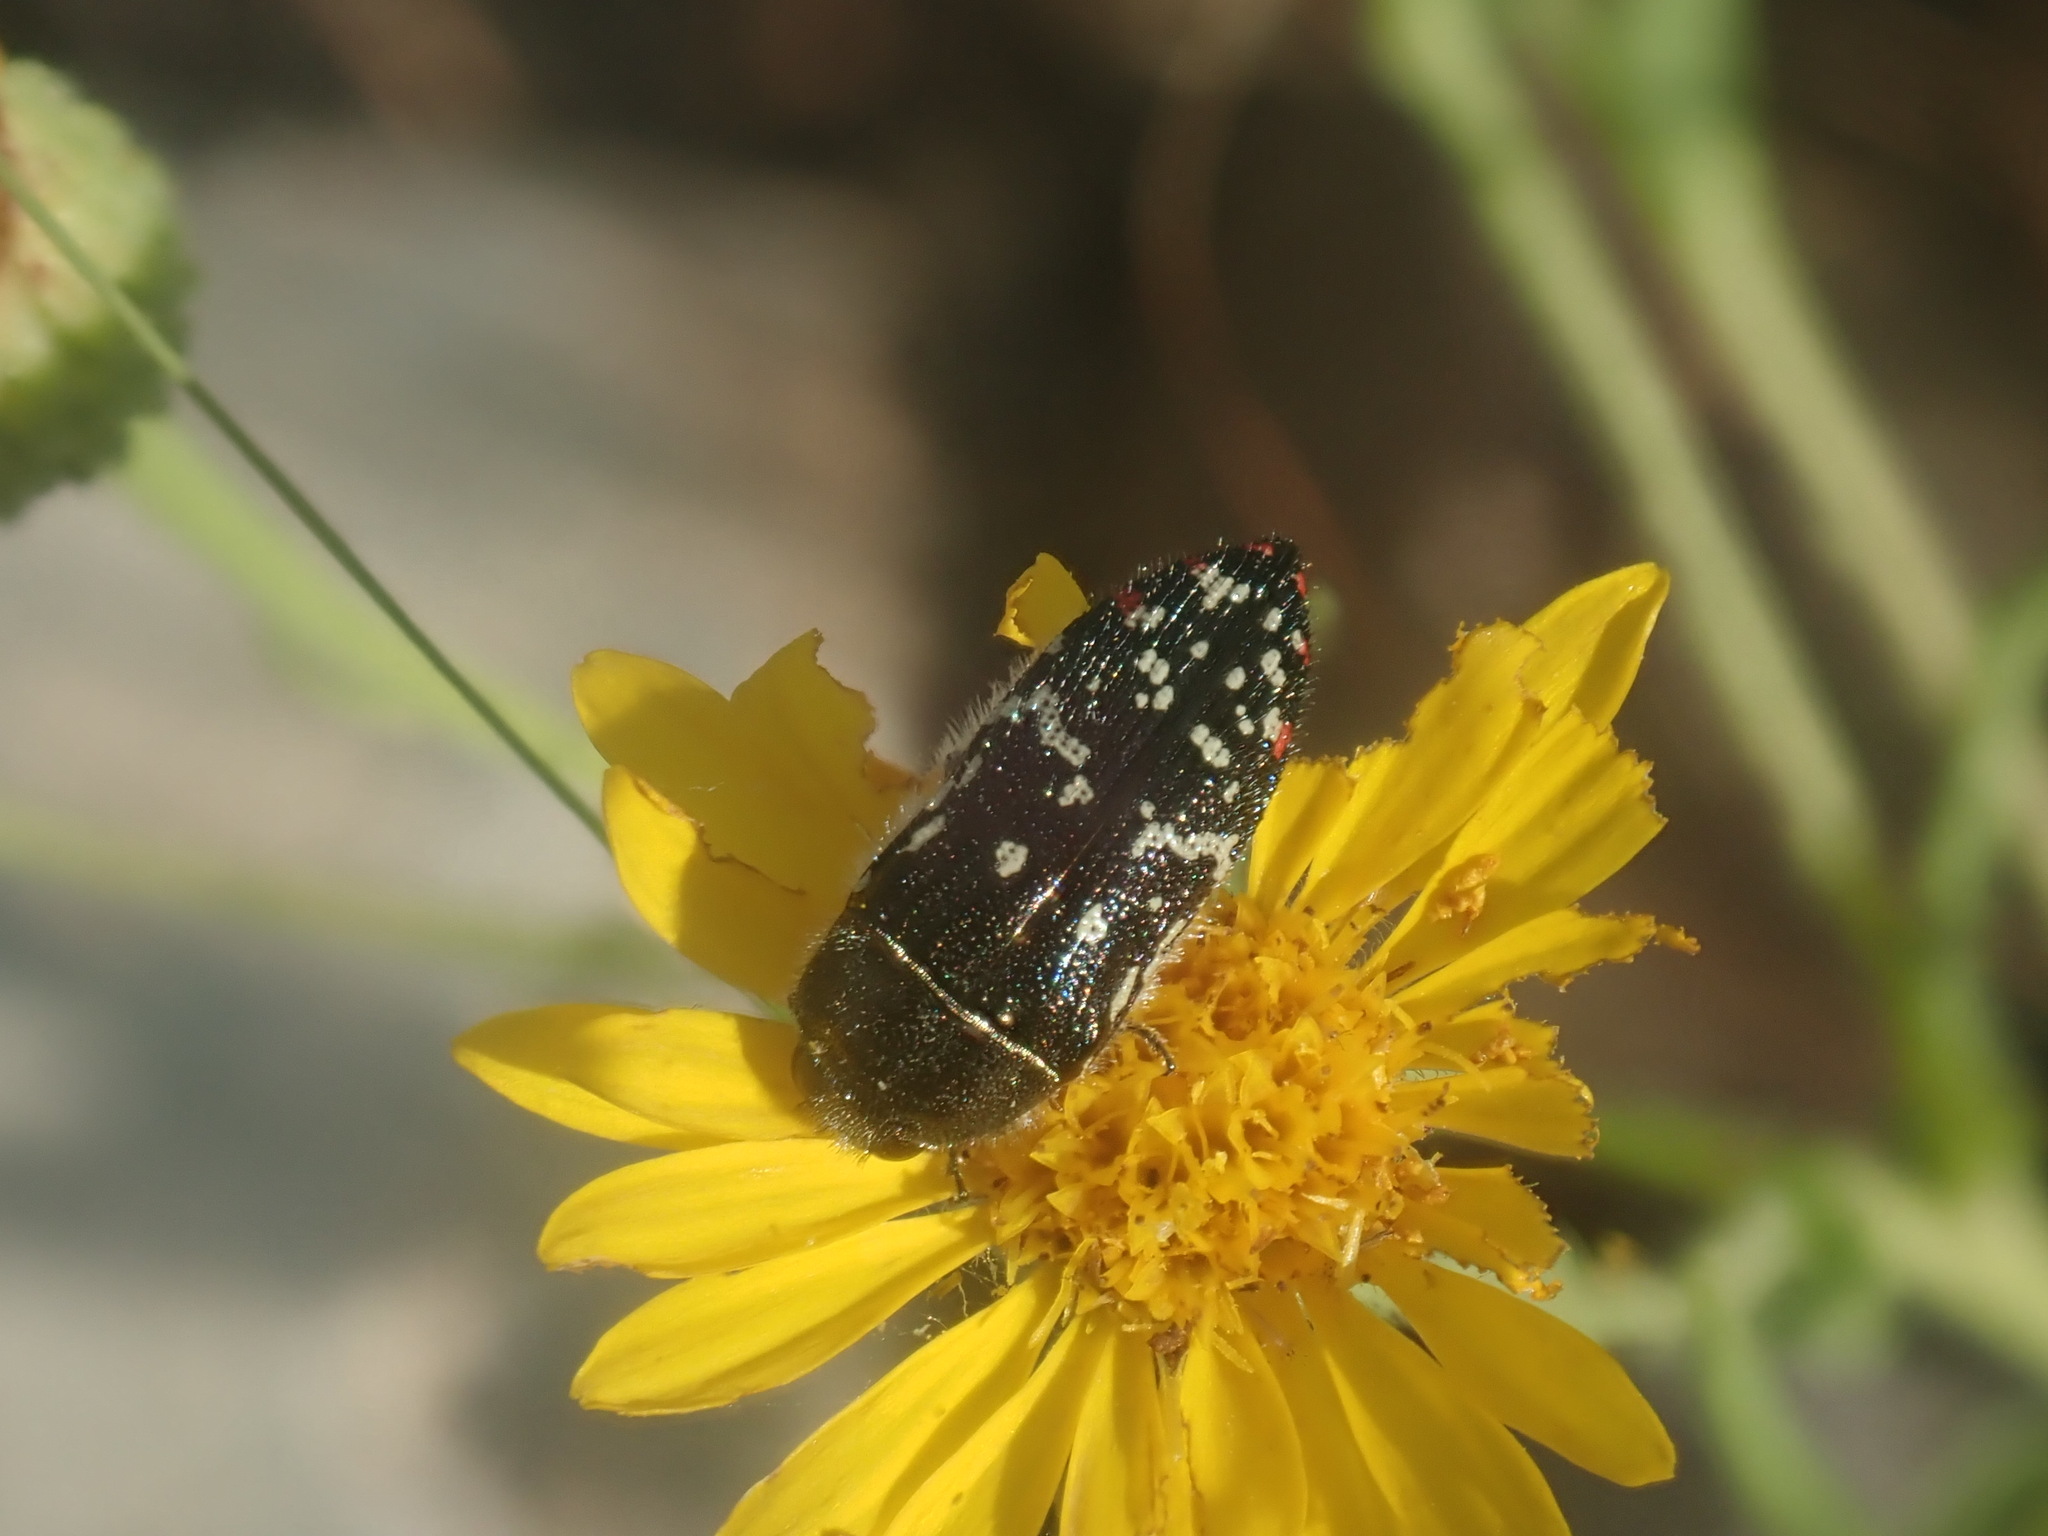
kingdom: Animalia
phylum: Arthropoda
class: Insecta
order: Coleoptera
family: Buprestidae
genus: Acmaeodera
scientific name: Acmaeodera rubronotata
